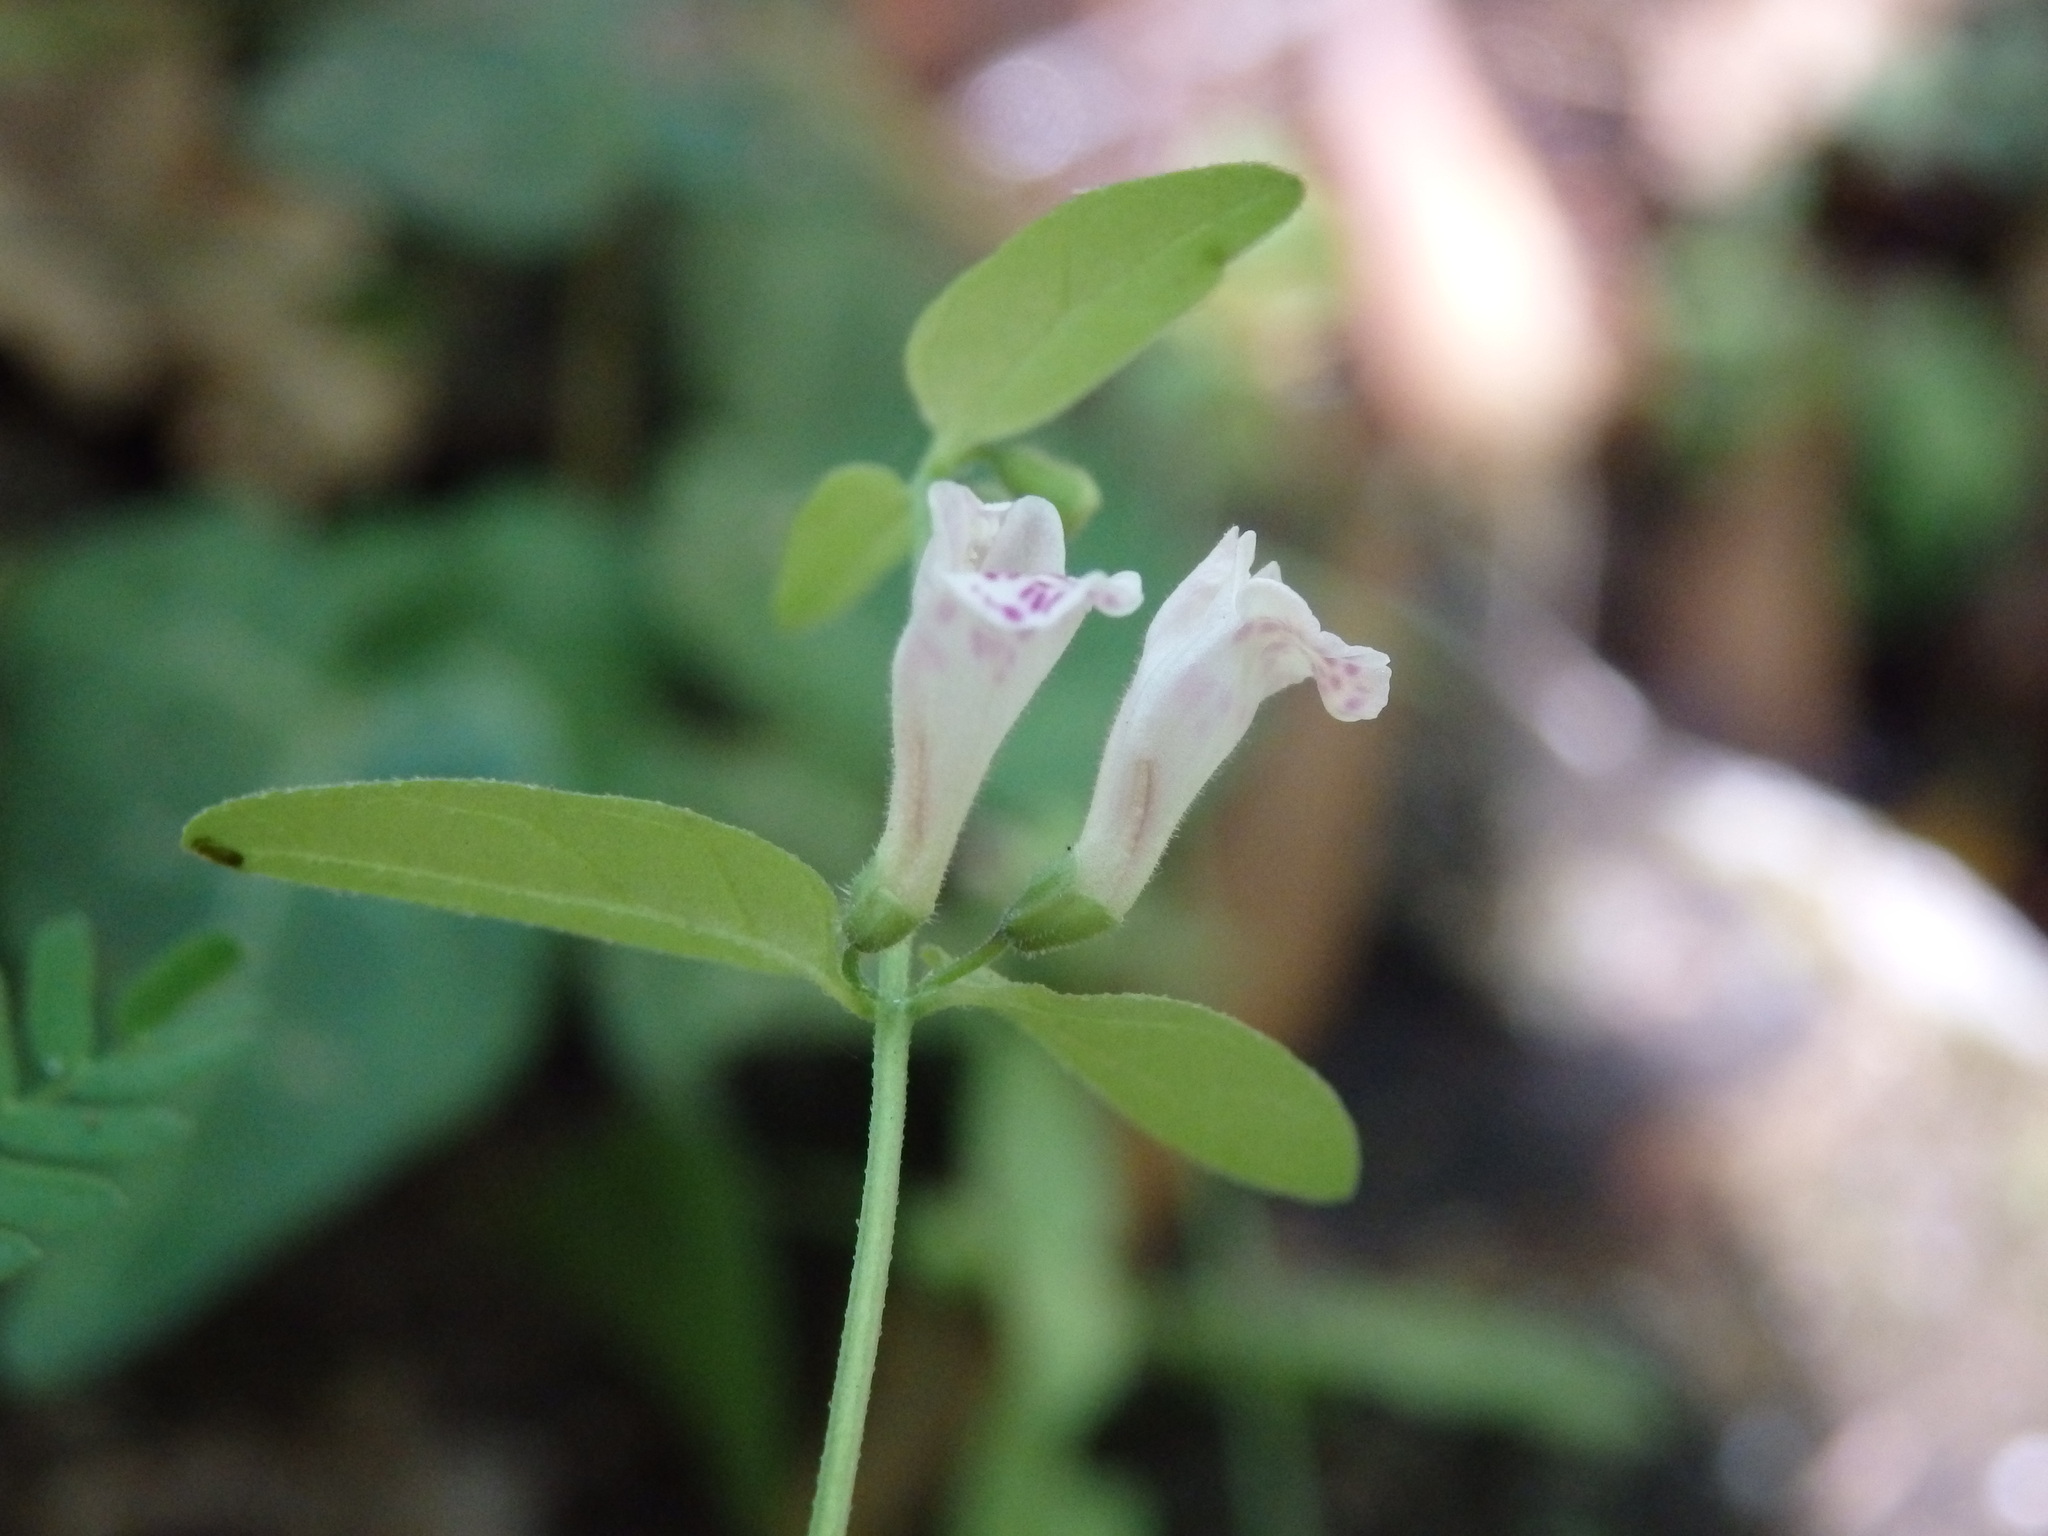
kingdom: Plantae
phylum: Tracheophyta
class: Magnoliopsida
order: Lamiales
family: Lamiaceae
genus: Scutellaria
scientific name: Scutellaria minor
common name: Lesser skullcap
